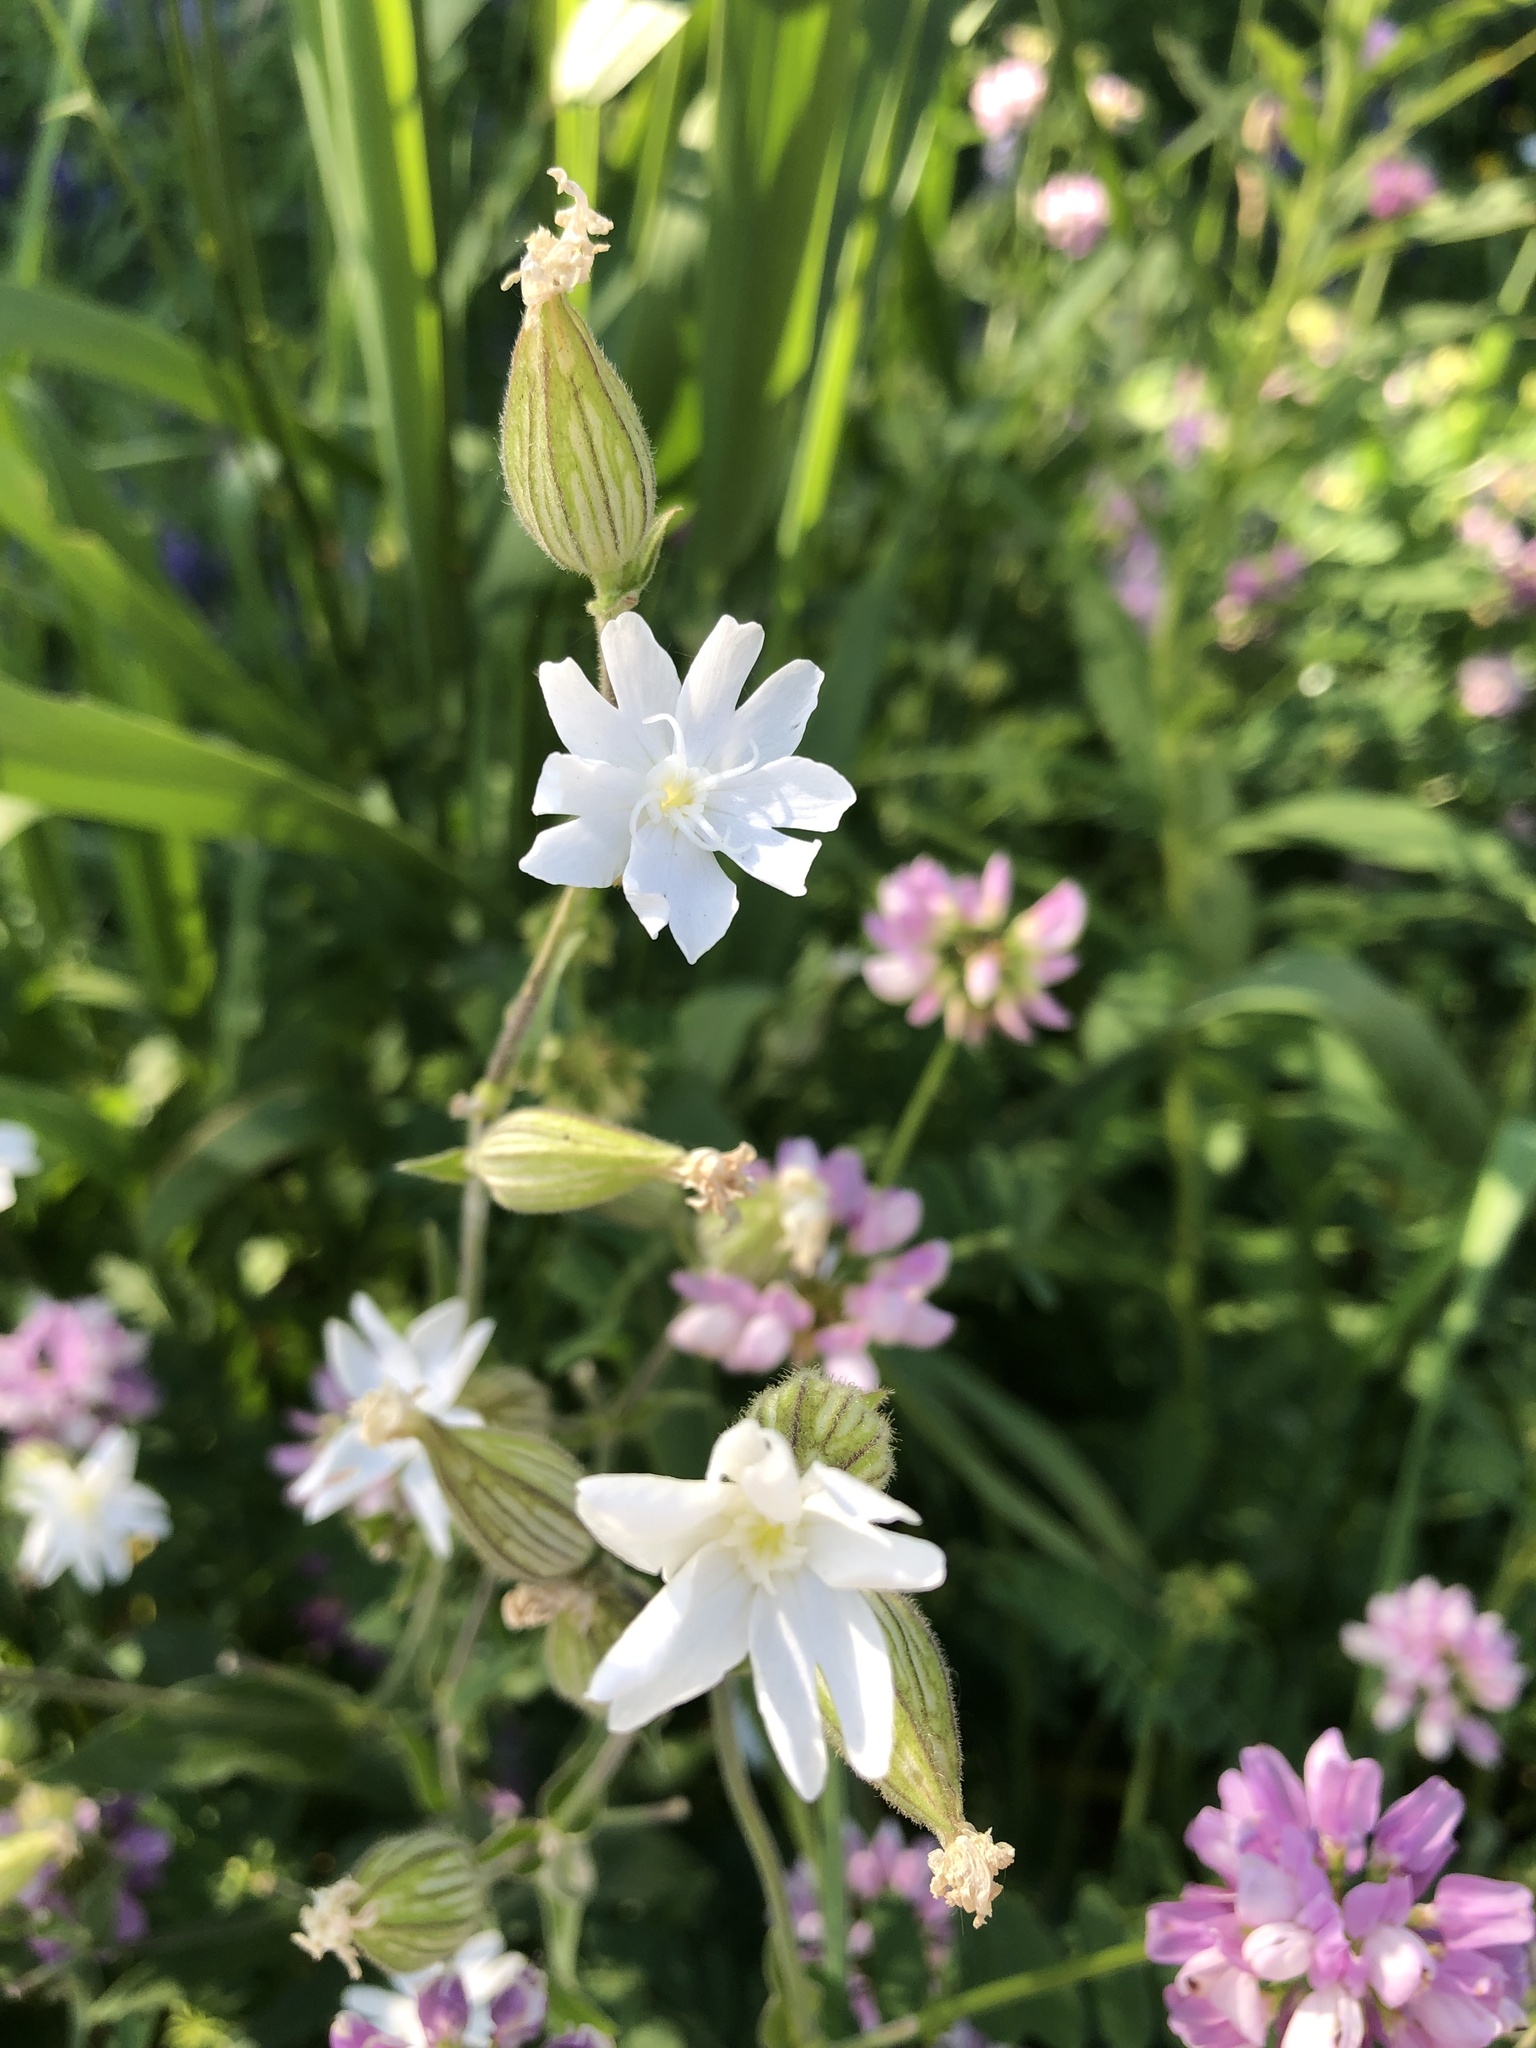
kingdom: Plantae
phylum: Tracheophyta
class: Magnoliopsida
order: Caryophyllales
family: Caryophyllaceae
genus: Silene
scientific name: Silene latifolia
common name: White campion
